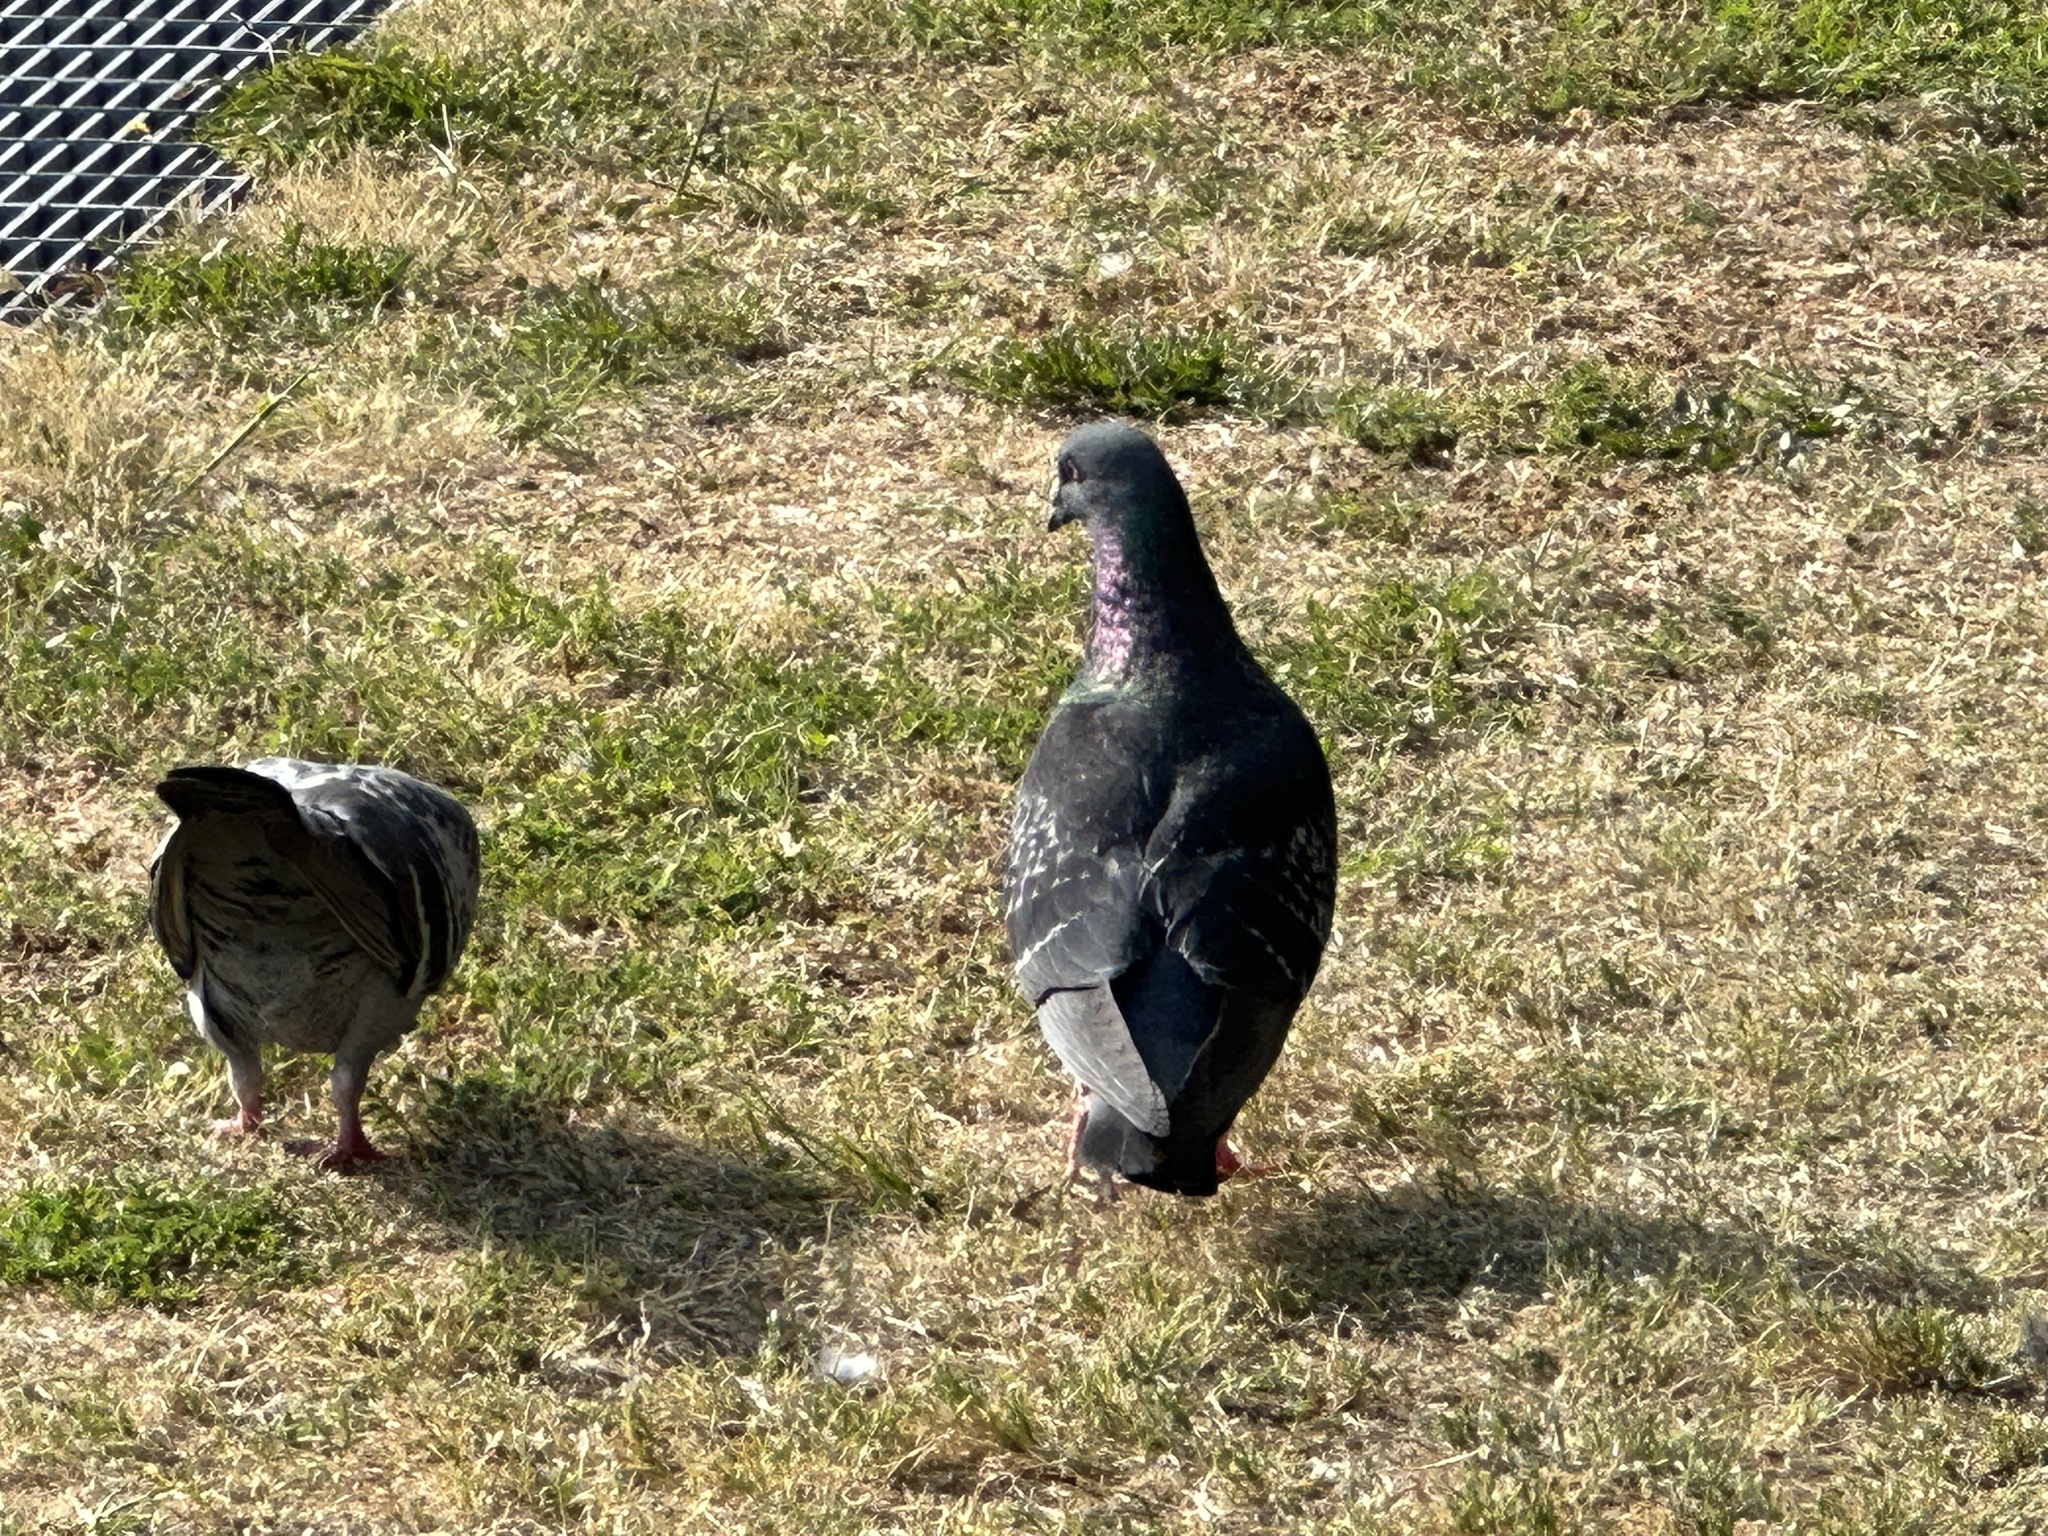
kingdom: Animalia
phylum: Chordata
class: Aves
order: Columbiformes
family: Columbidae
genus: Columba
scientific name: Columba livia
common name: Rock pigeon
